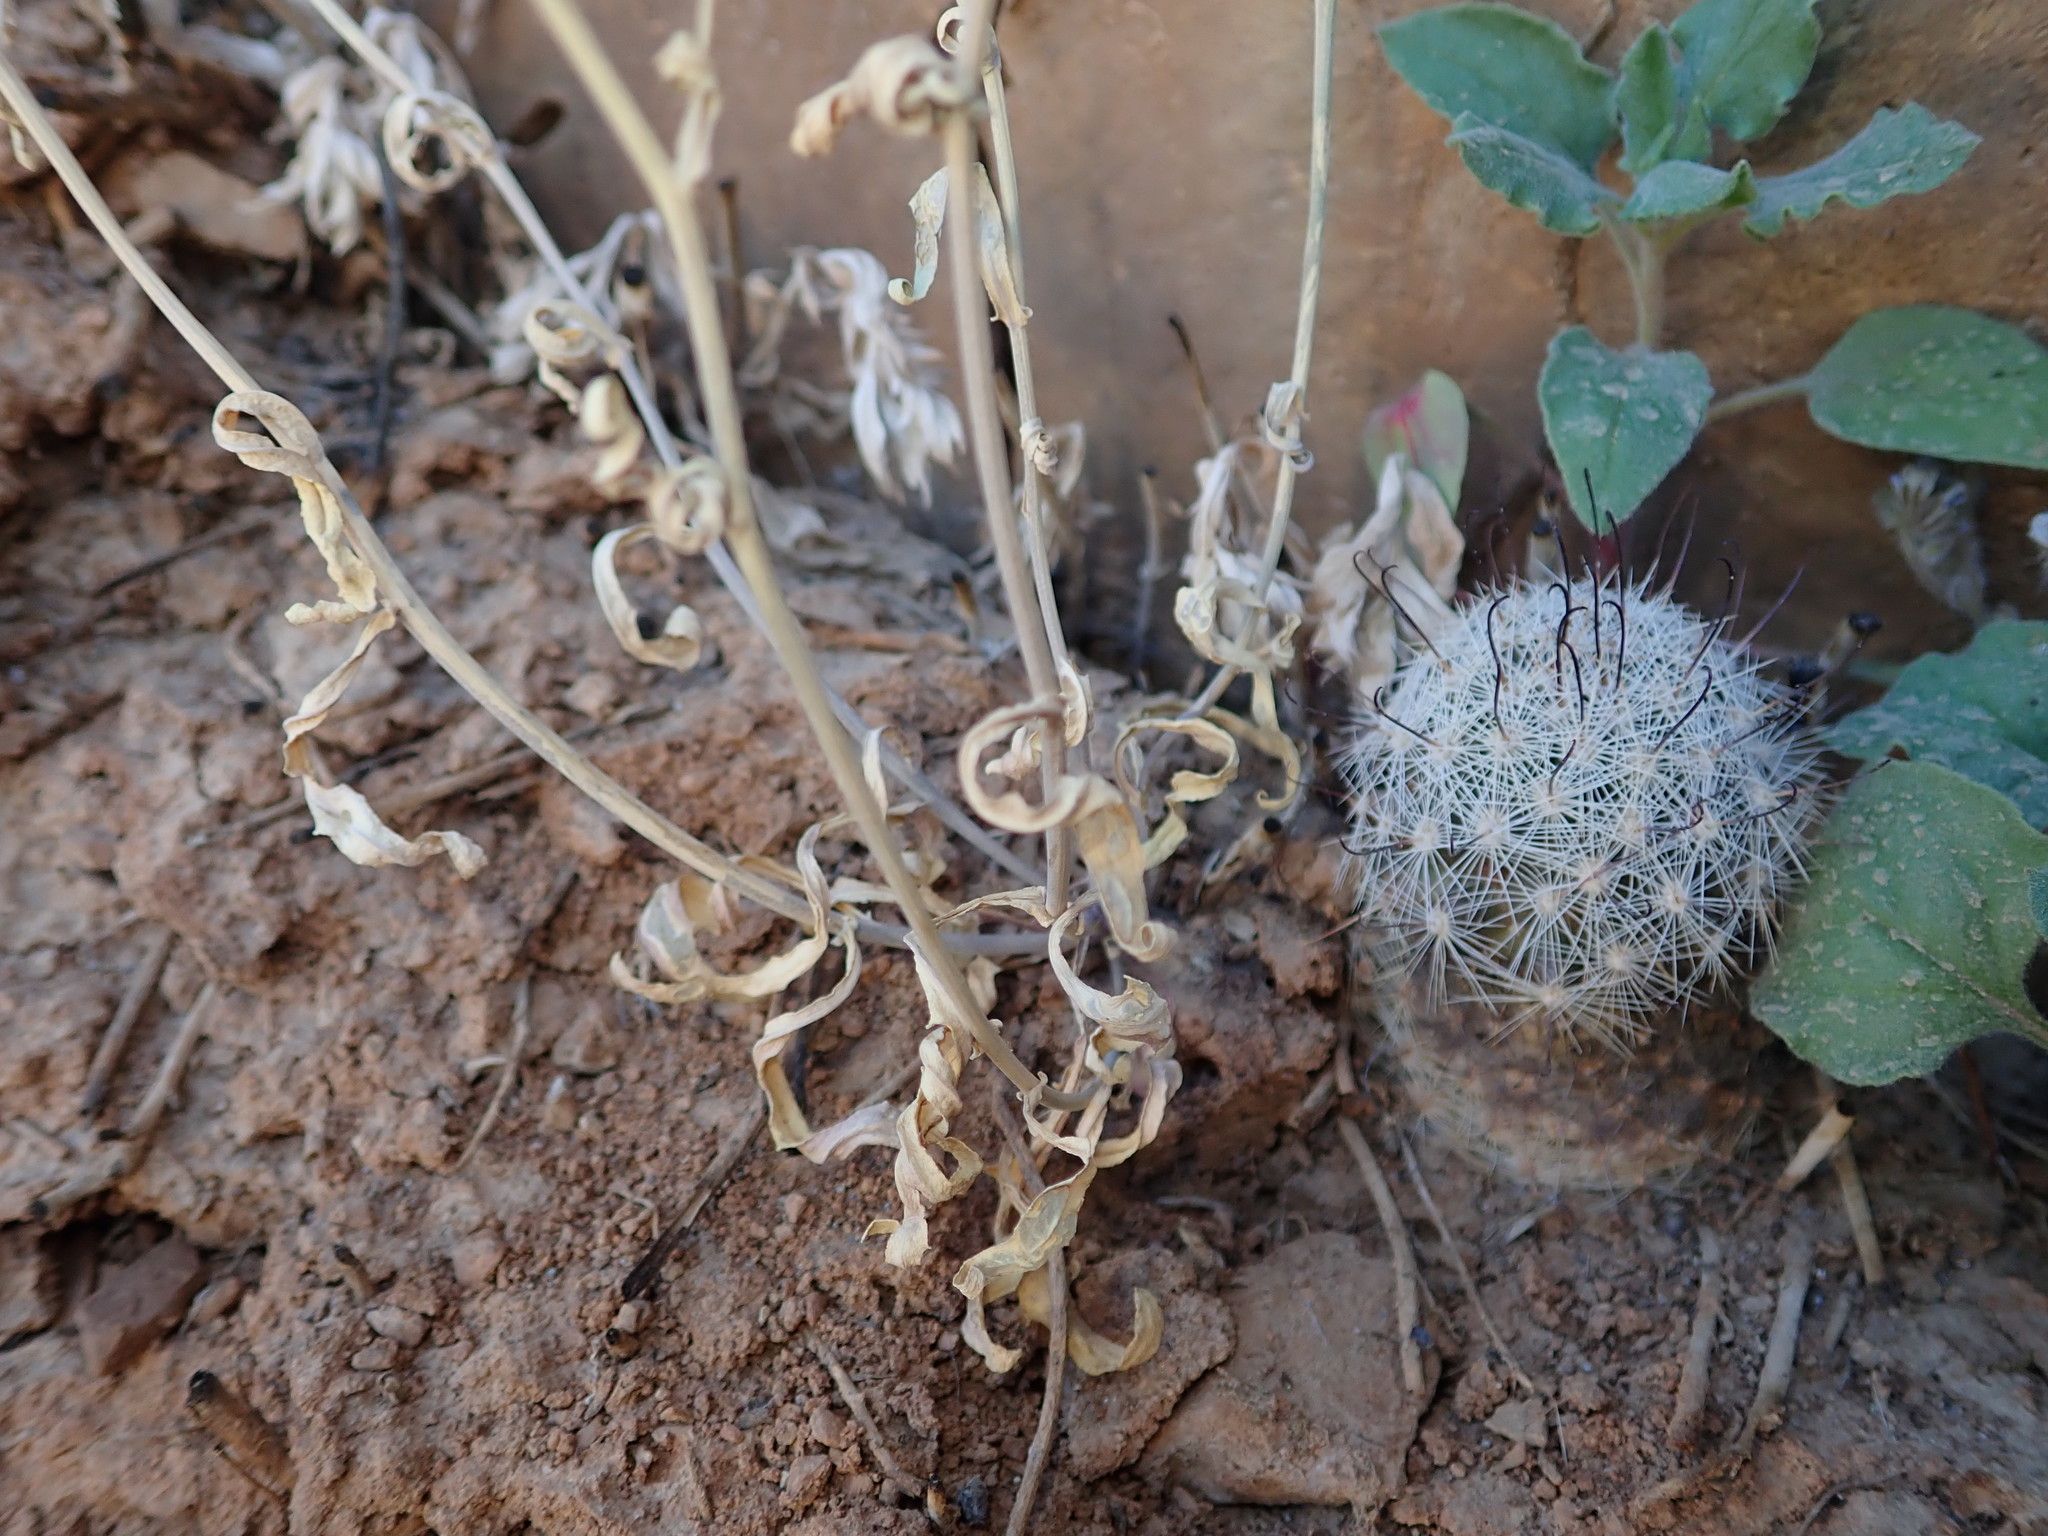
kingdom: Plantae
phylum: Tracheophyta
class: Magnoliopsida
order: Brassicales
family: Brassicaceae
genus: Thysanocarpus
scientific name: Thysanocarpus curvipes
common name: Sand fringepod
